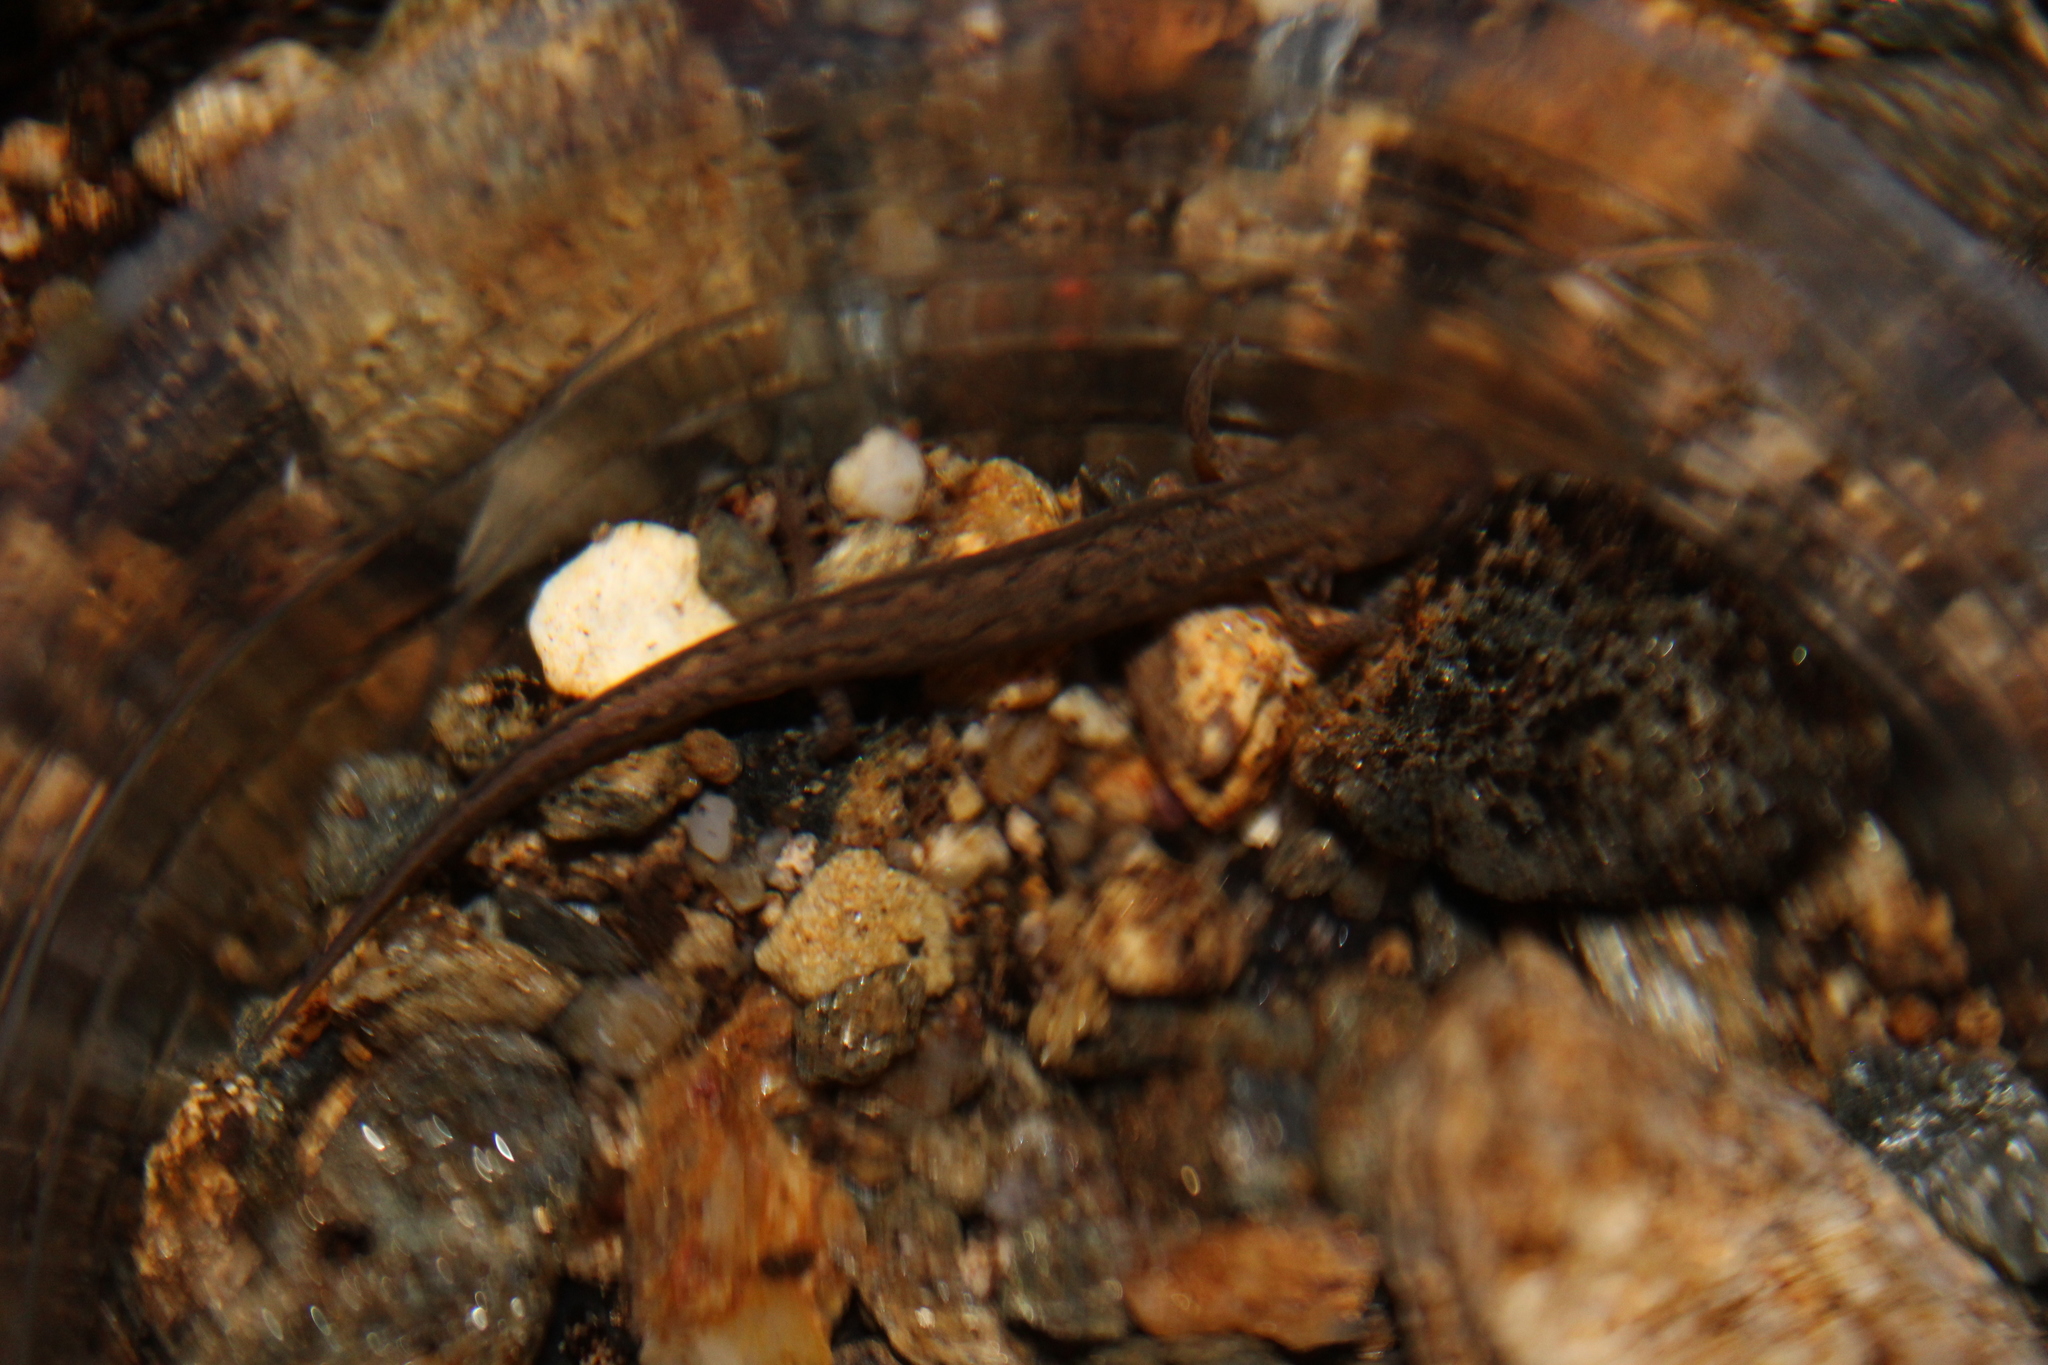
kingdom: Animalia
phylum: Chordata
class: Amphibia
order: Caudata
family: Plethodontidae
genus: Eurycea
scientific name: Eurycea bislineata
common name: Northern two-lined salamander
